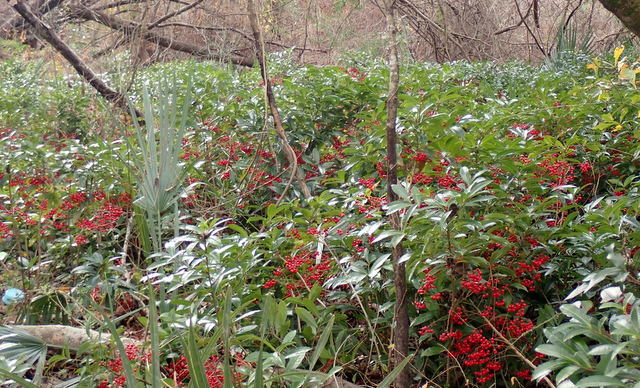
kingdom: Plantae
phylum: Tracheophyta
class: Magnoliopsida
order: Ericales
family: Primulaceae
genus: Ardisia
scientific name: Ardisia crenata
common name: Hen's eyes
